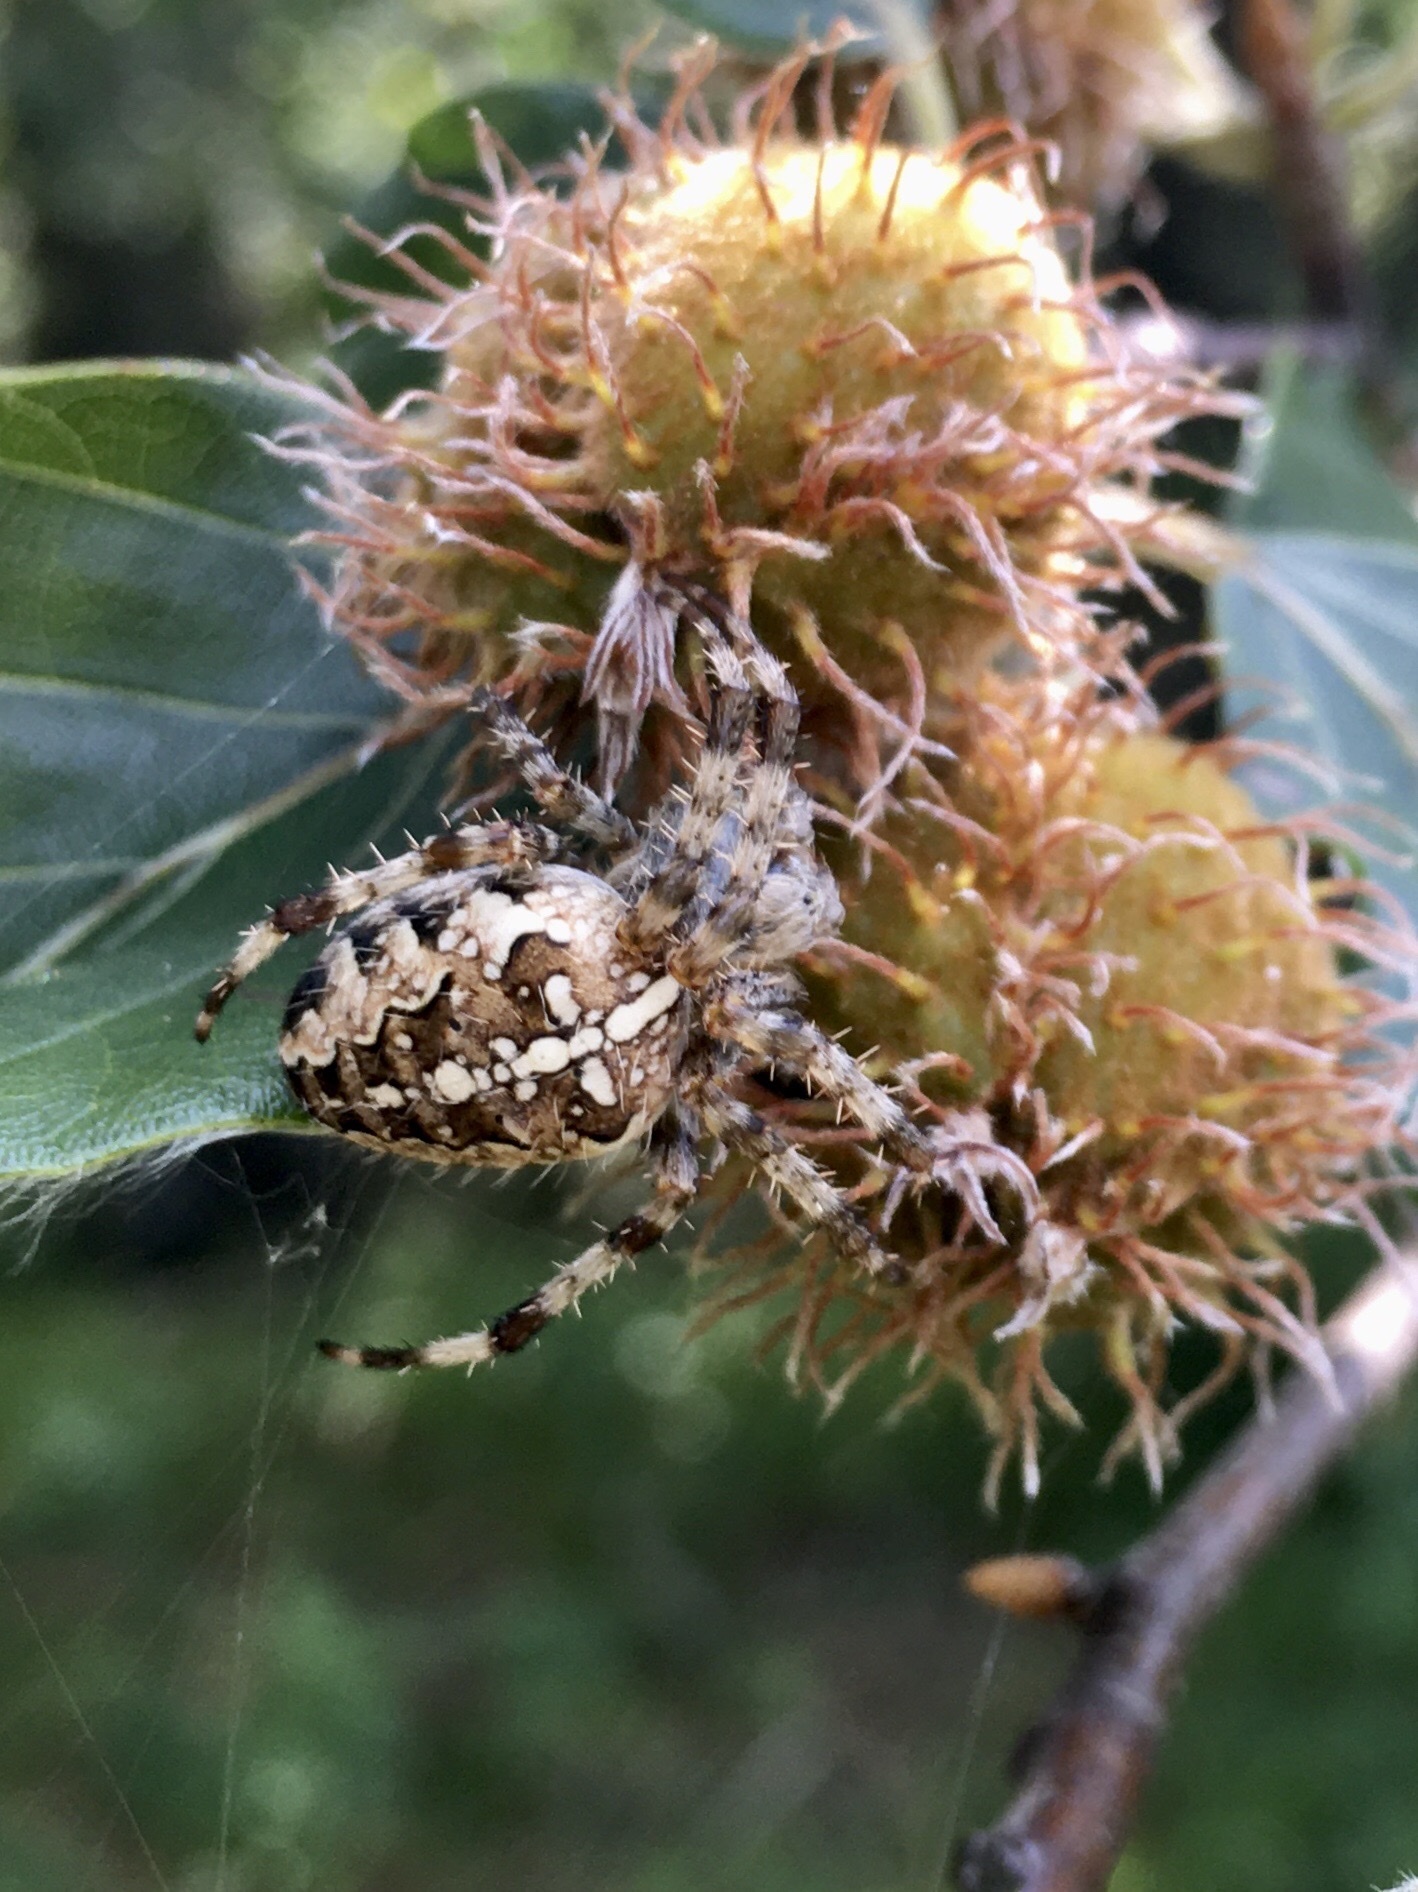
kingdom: Animalia
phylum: Arthropoda
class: Arachnida
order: Araneae
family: Araneidae
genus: Araneus
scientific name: Araneus diadematus
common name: Cross orbweaver
